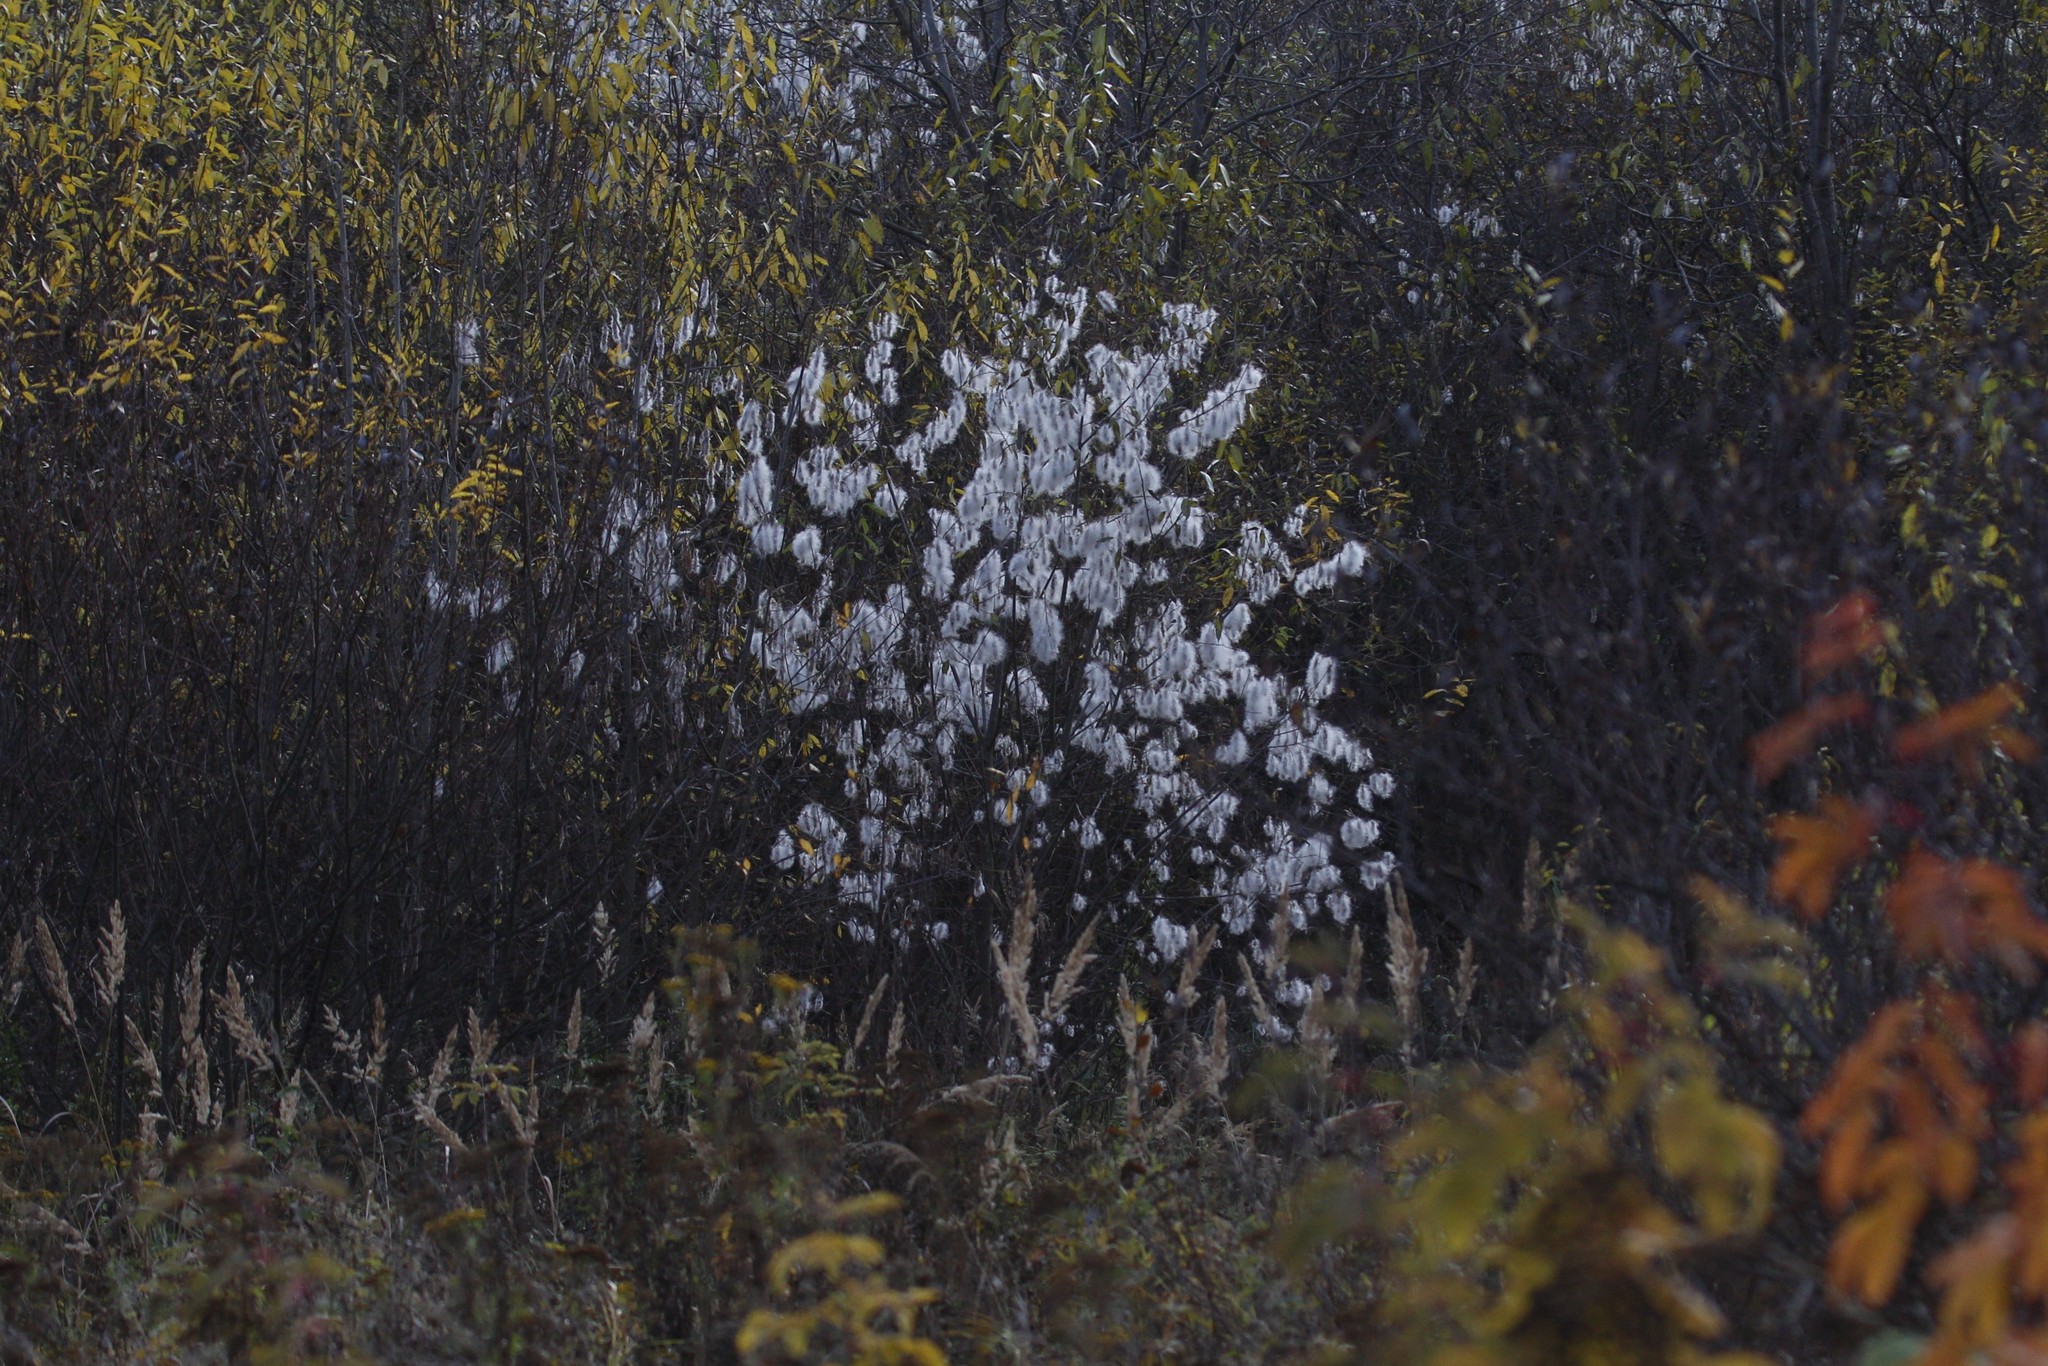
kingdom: Plantae
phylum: Tracheophyta
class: Magnoliopsida
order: Malpighiales
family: Salicaceae
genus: Salix
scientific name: Salix pentandra
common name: Bay willow
